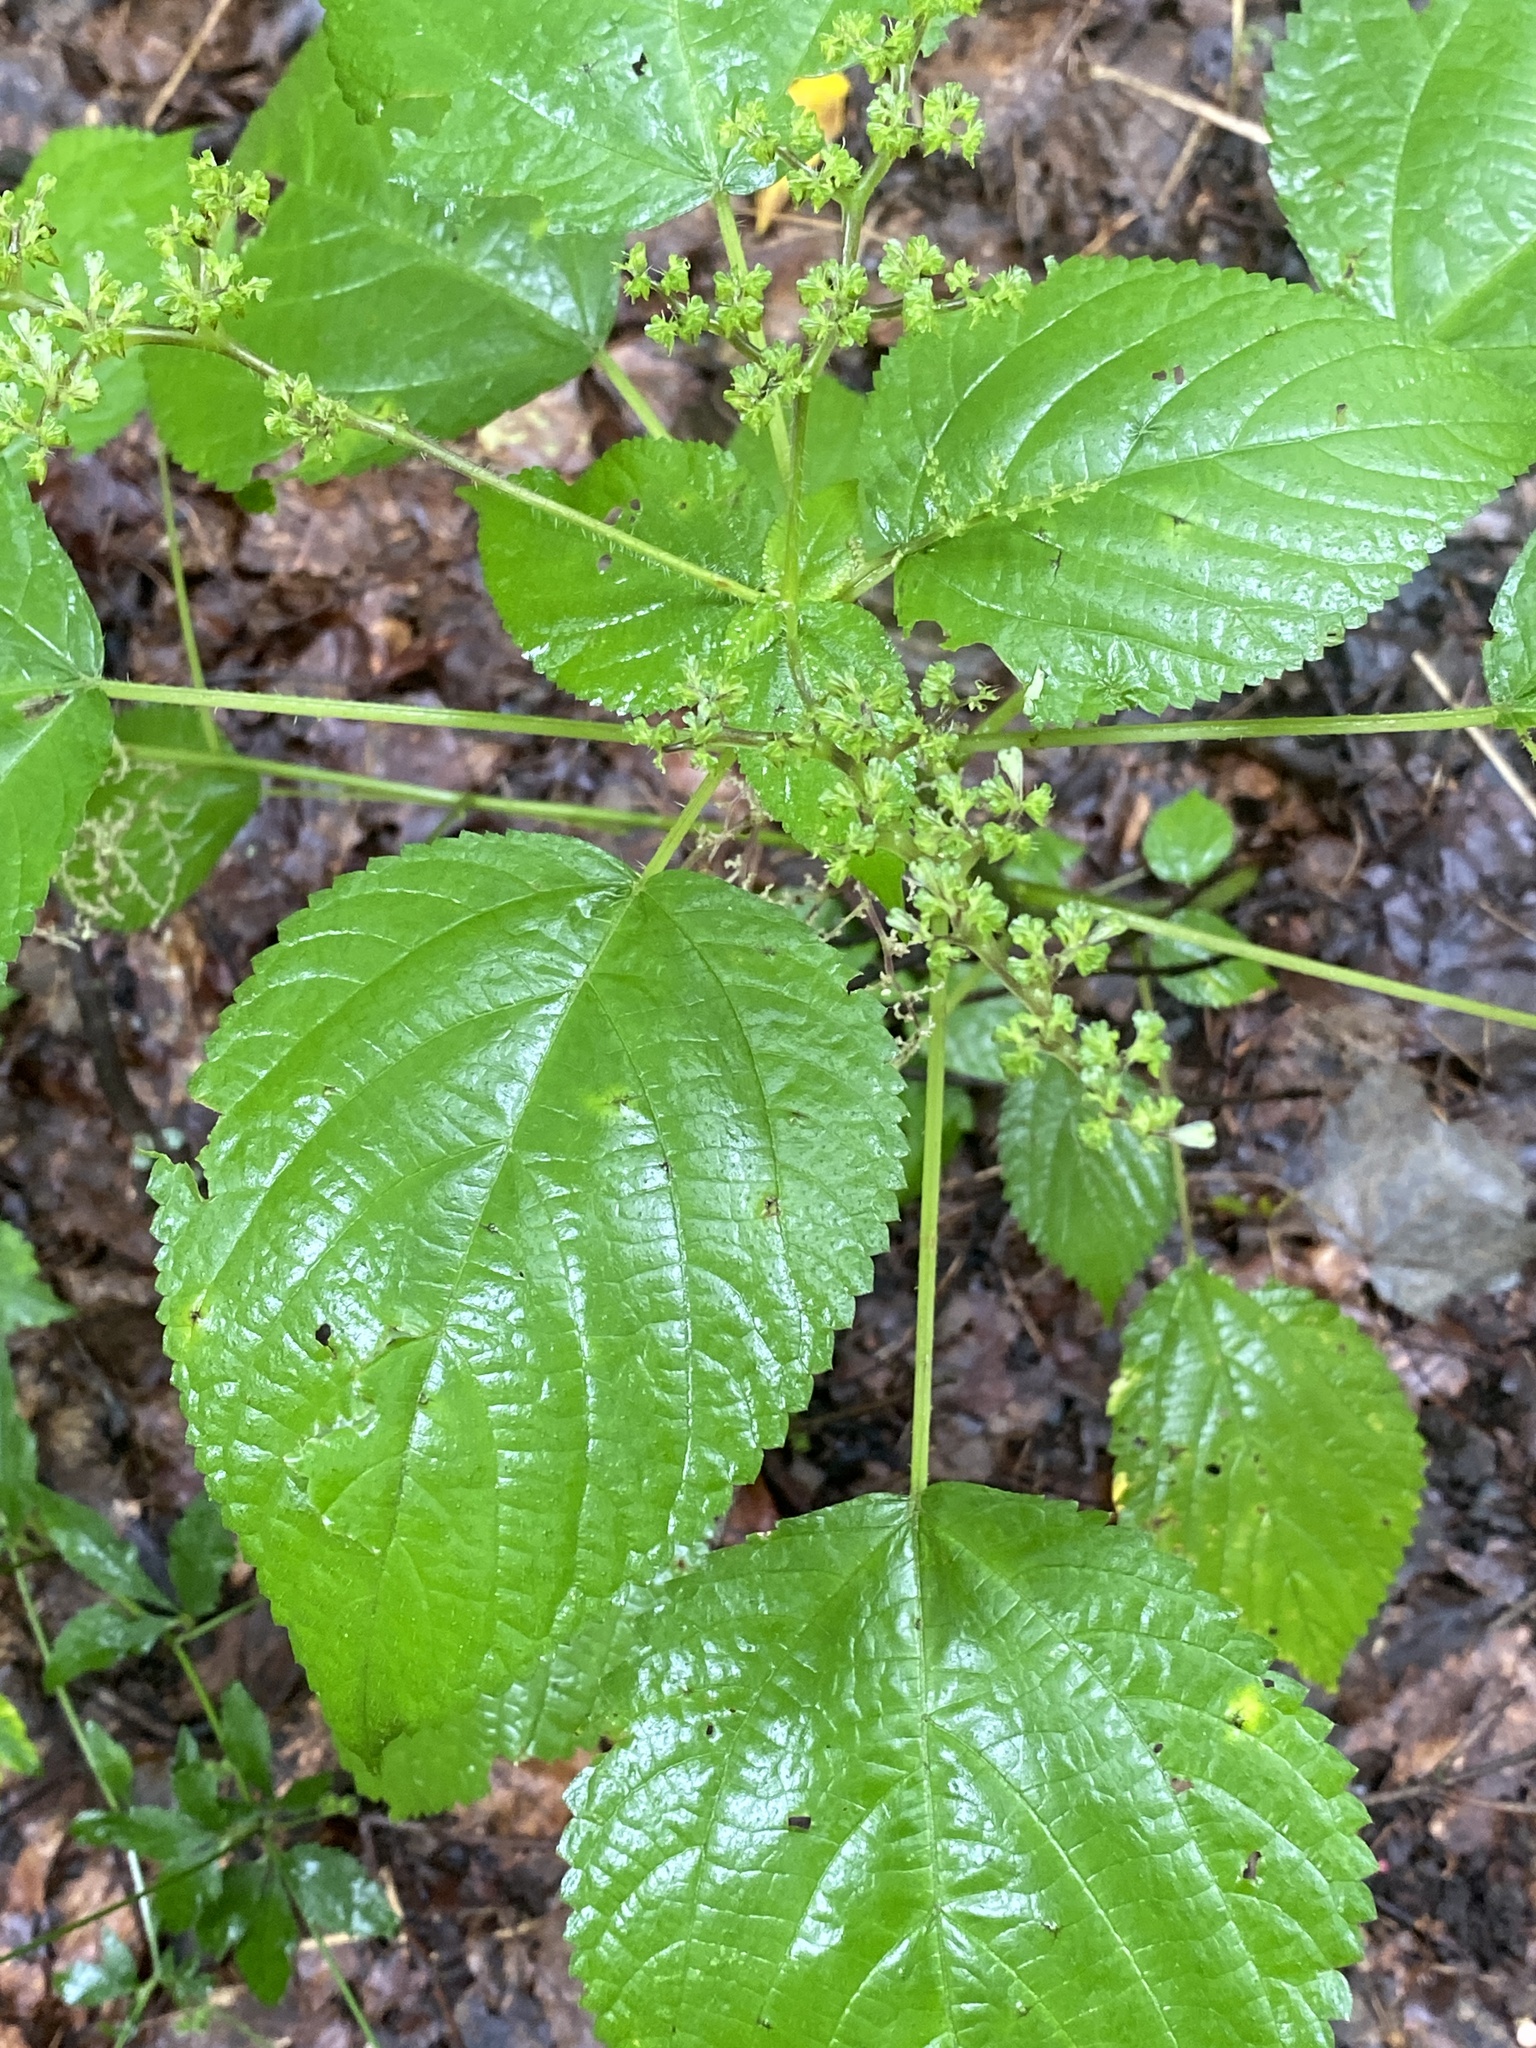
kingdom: Plantae
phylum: Tracheophyta
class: Magnoliopsida
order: Rosales
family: Urticaceae
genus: Laportea
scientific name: Laportea canadensis
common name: Canada nettle
